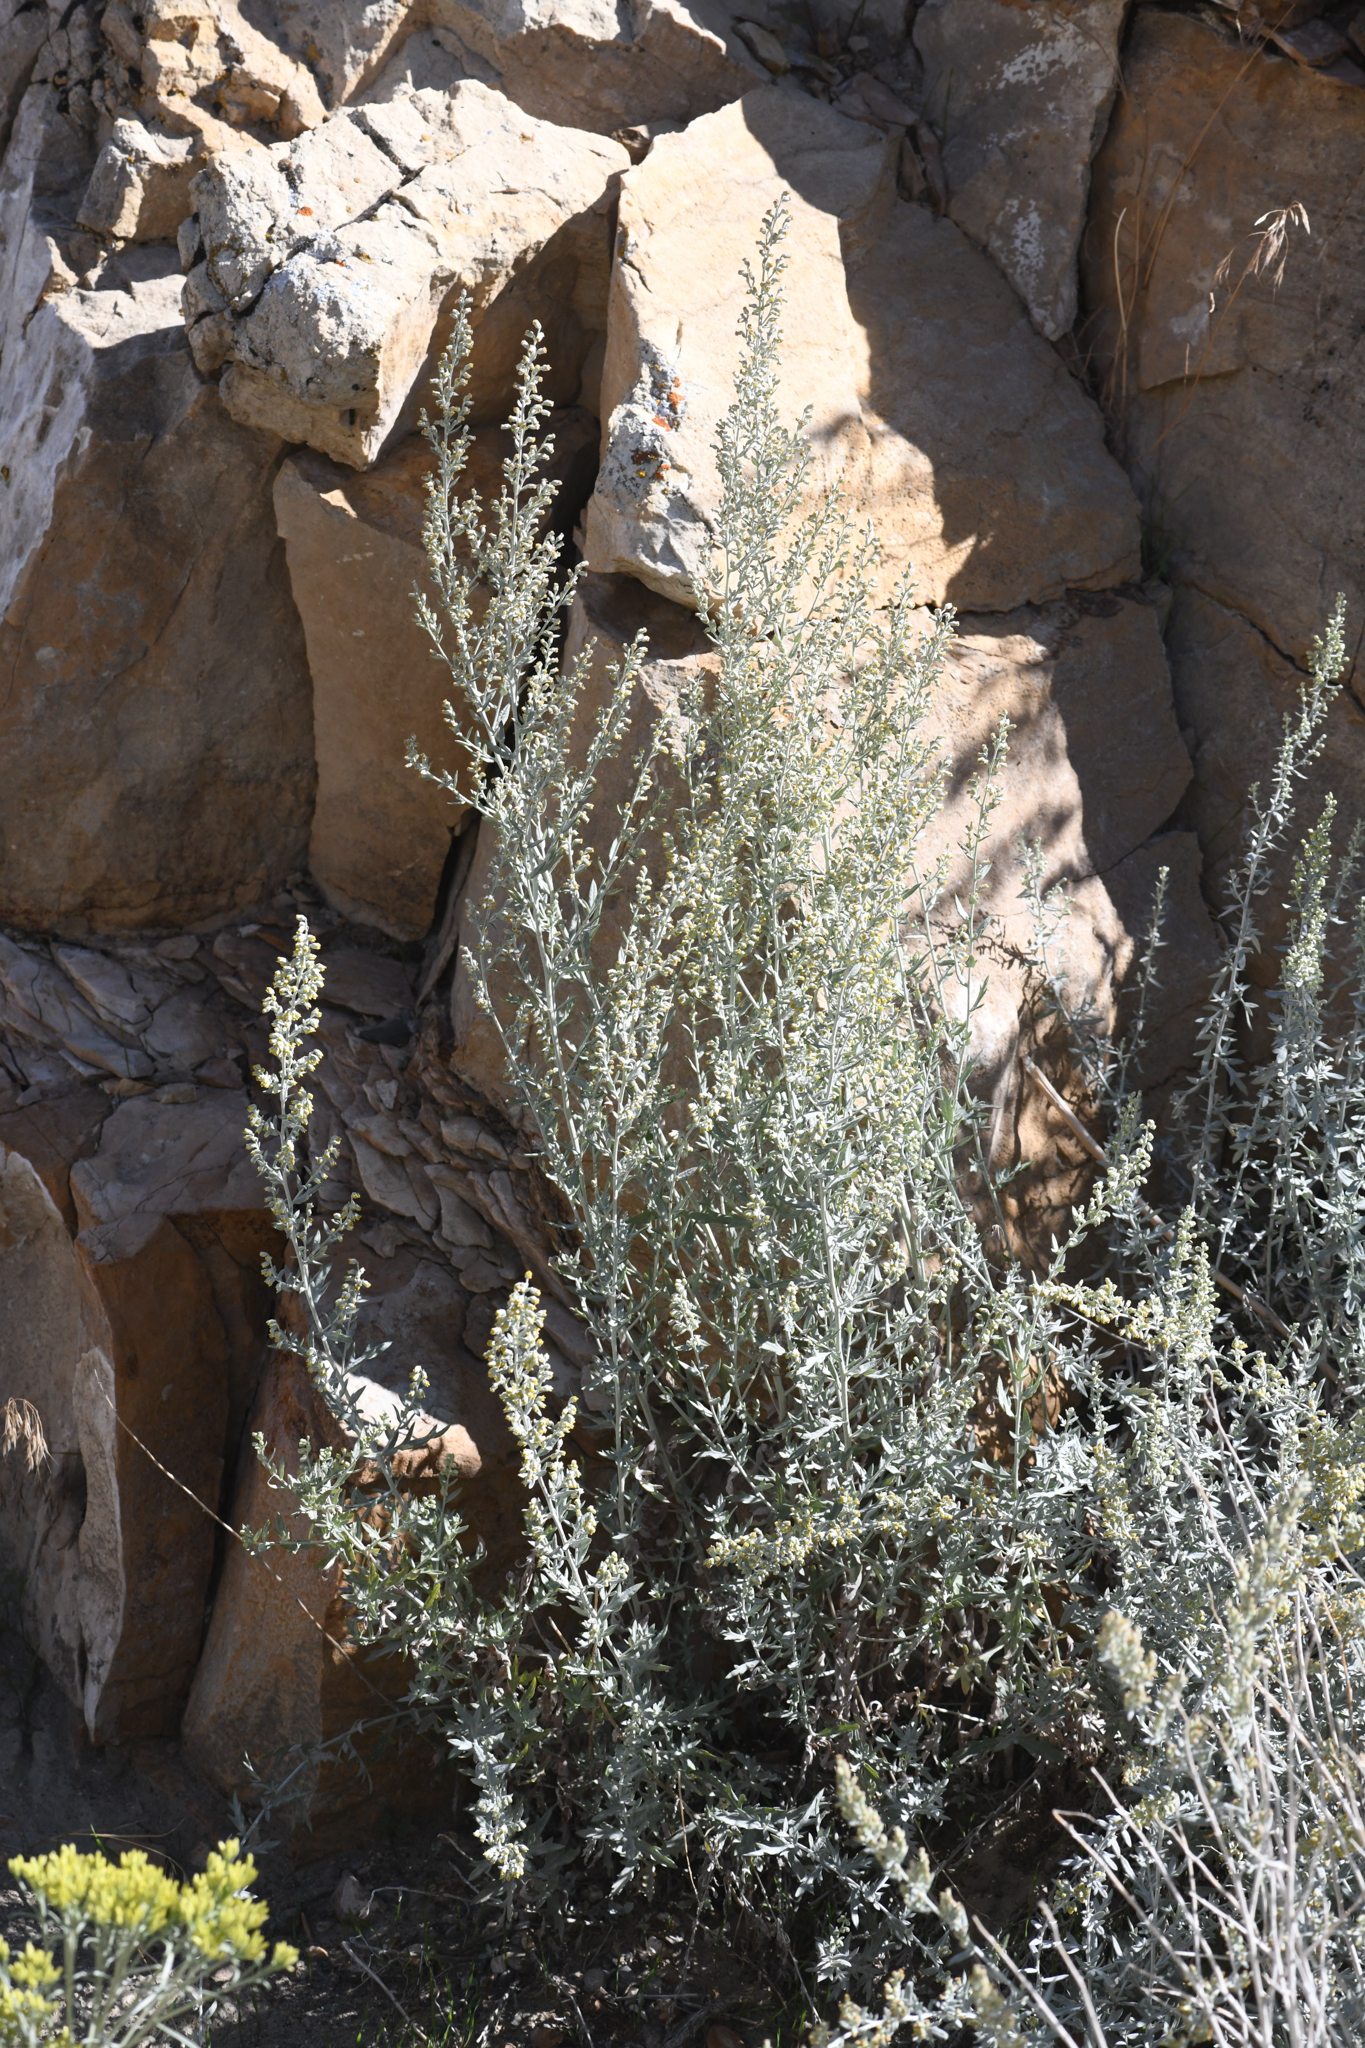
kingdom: Plantae
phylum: Tracheophyta
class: Magnoliopsida
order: Asterales
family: Asteraceae
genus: Artemisia
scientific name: Artemisia ludoviciana
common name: Western mugwort
